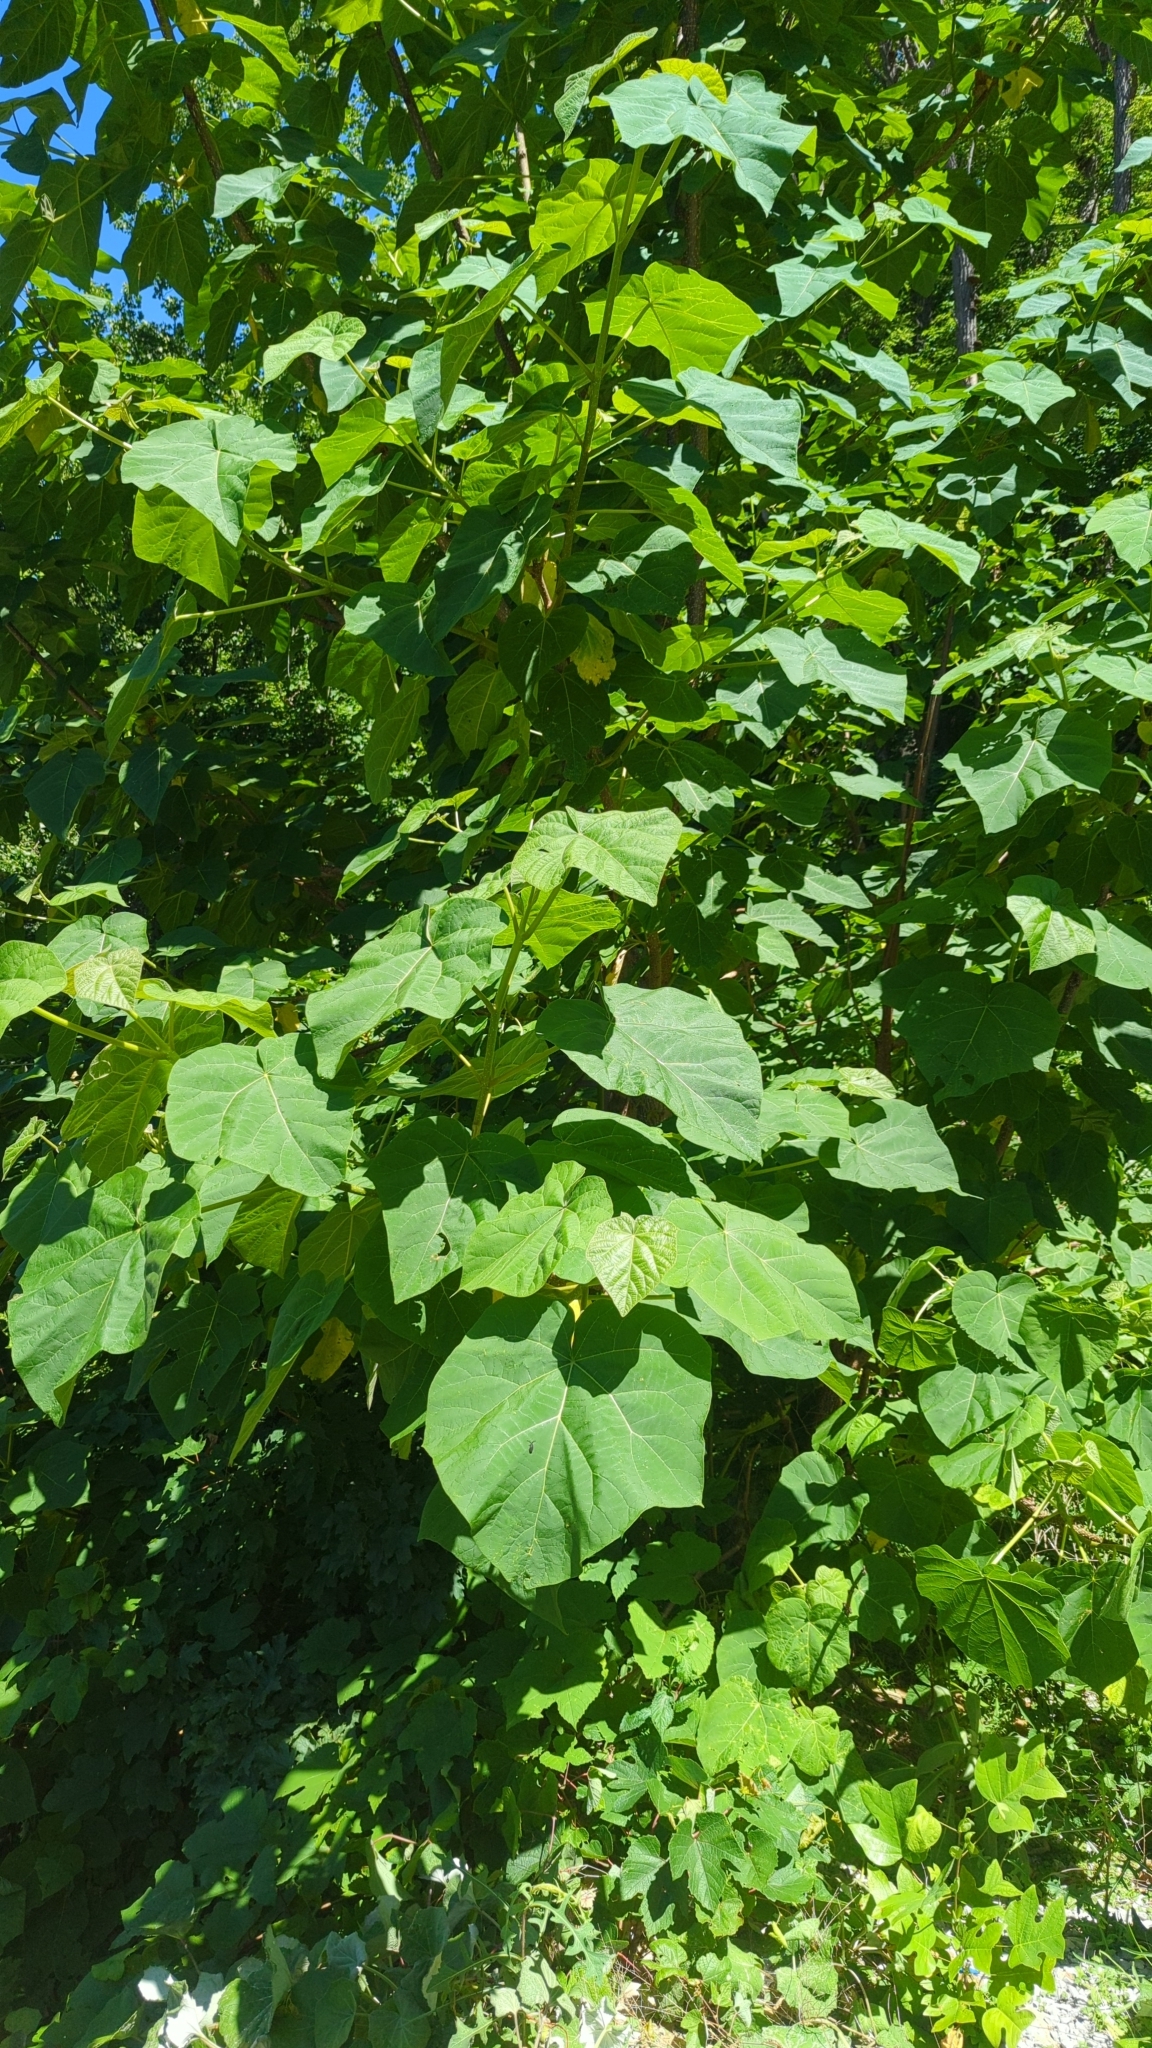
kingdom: Plantae
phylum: Tracheophyta
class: Magnoliopsida
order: Lamiales
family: Paulowniaceae
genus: Paulownia
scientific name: Paulownia tomentosa
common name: Foxglove-tree
